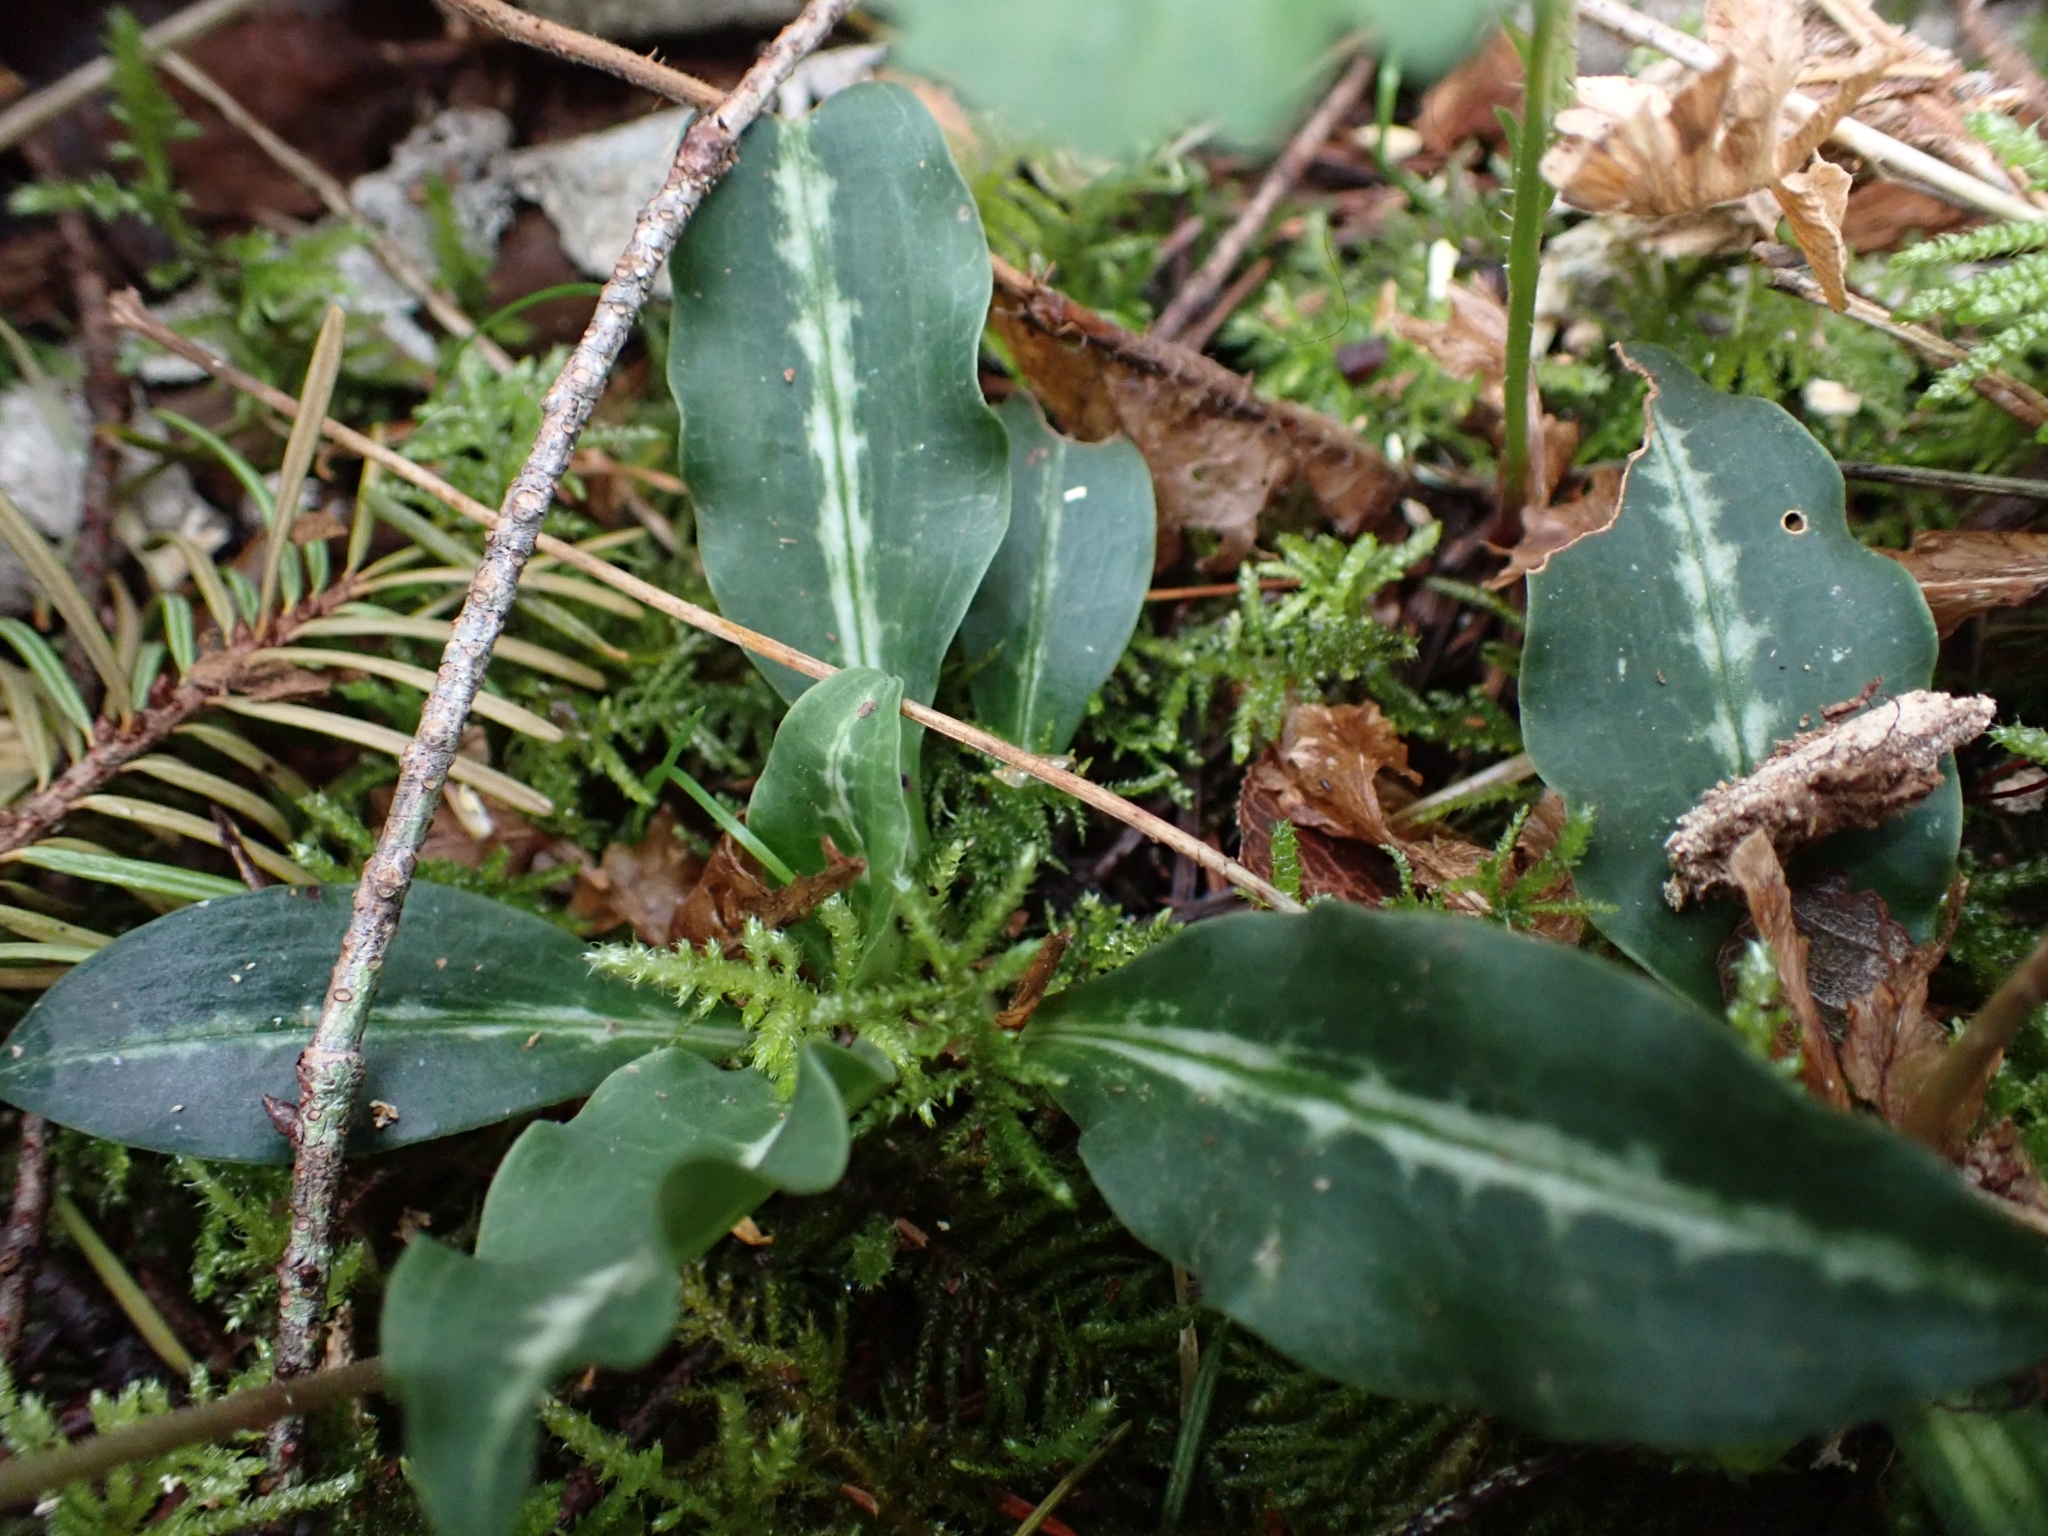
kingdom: Plantae
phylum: Tracheophyta
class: Liliopsida
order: Asparagales
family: Orchidaceae
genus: Goodyera
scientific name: Goodyera oblongifolia
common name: Giant rattlesnake-plantain
